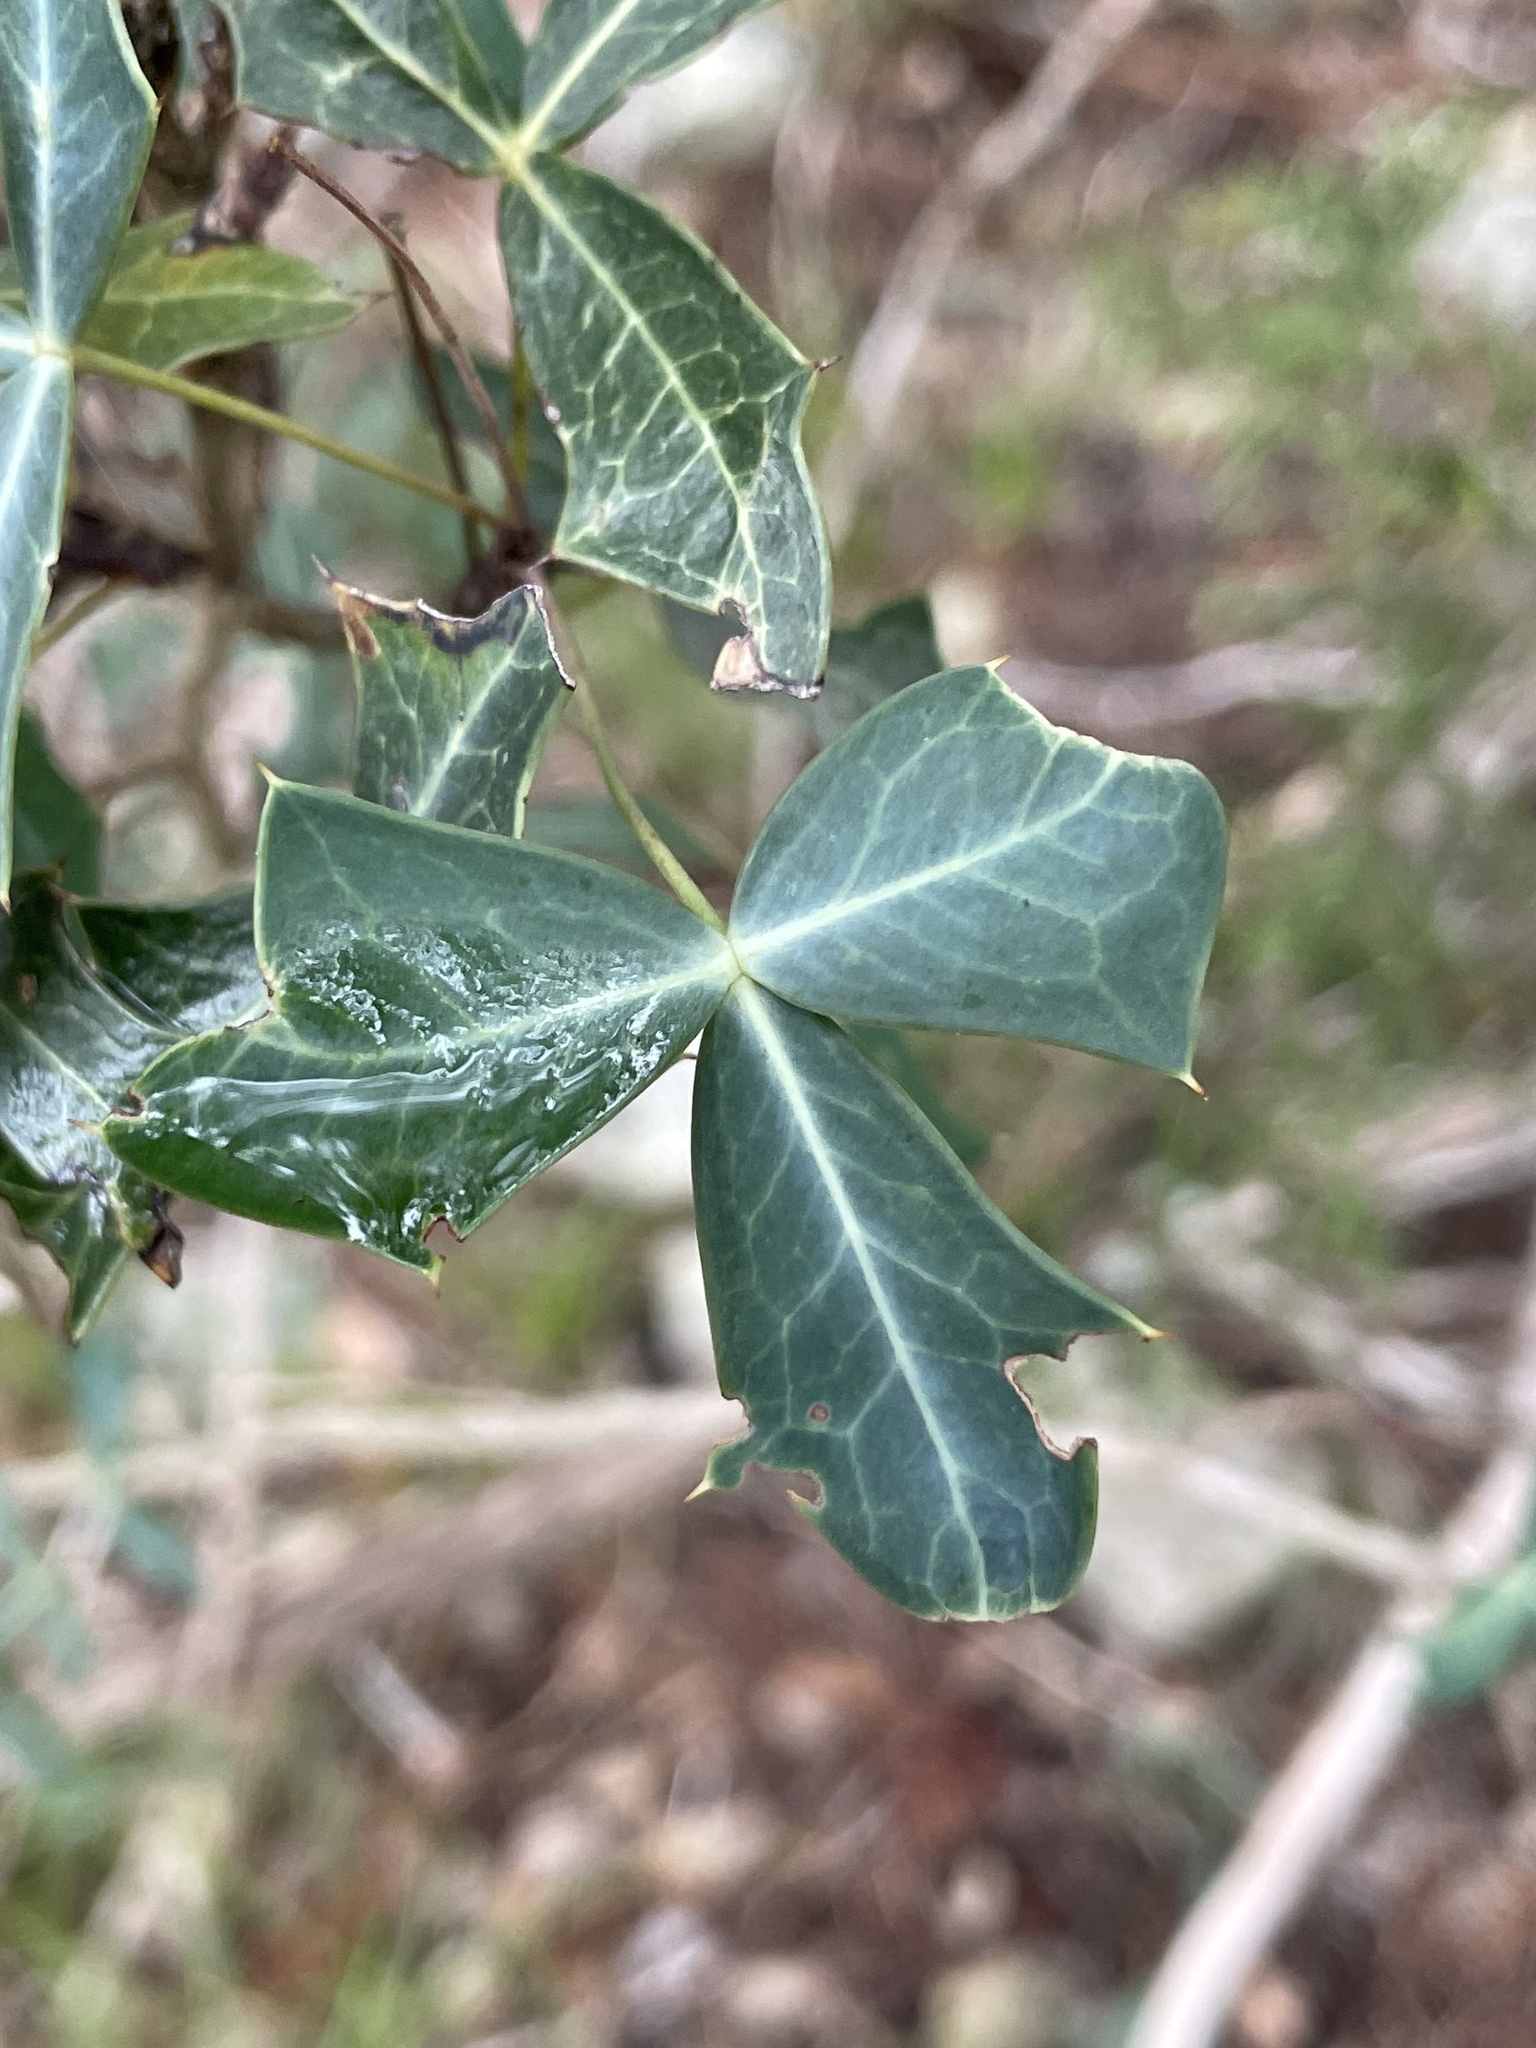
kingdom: Plantae
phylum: Tracheophyta
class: Magnoliopsida
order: Ranunculales
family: Berberidaceae
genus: Alloberberis
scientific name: Alloberberis trifoliolata
